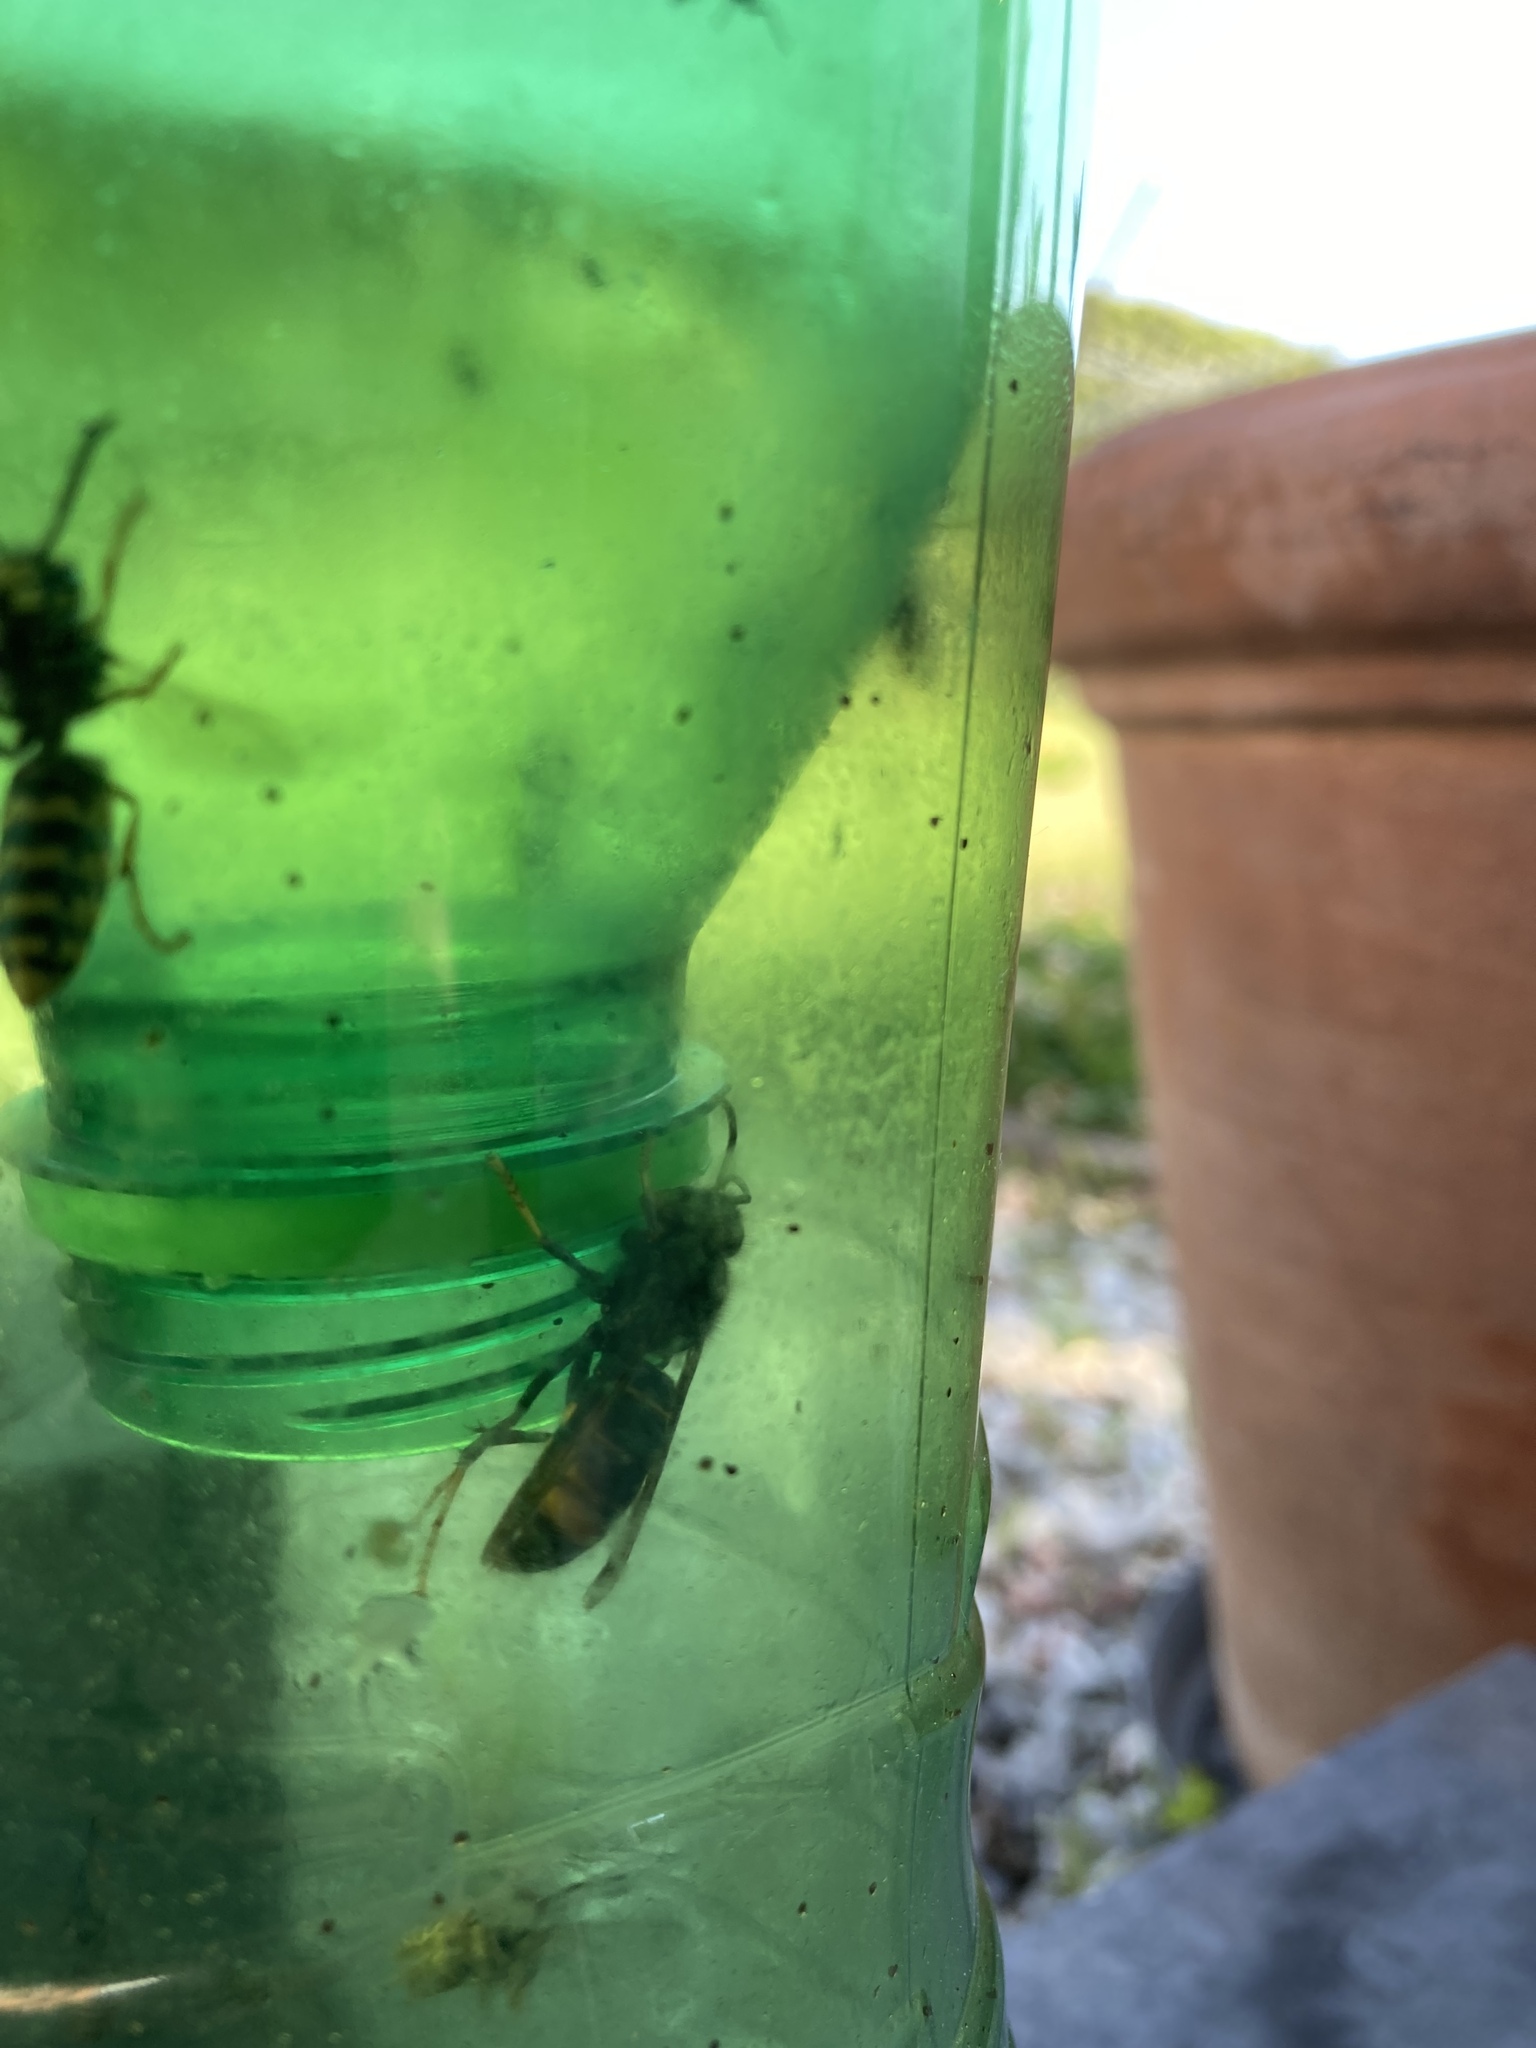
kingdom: Animalia
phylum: Arthropoda
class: Insecta
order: Hymenoptera
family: Vespidae
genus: Vespa
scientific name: Vespa velutina
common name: Asian hornet
